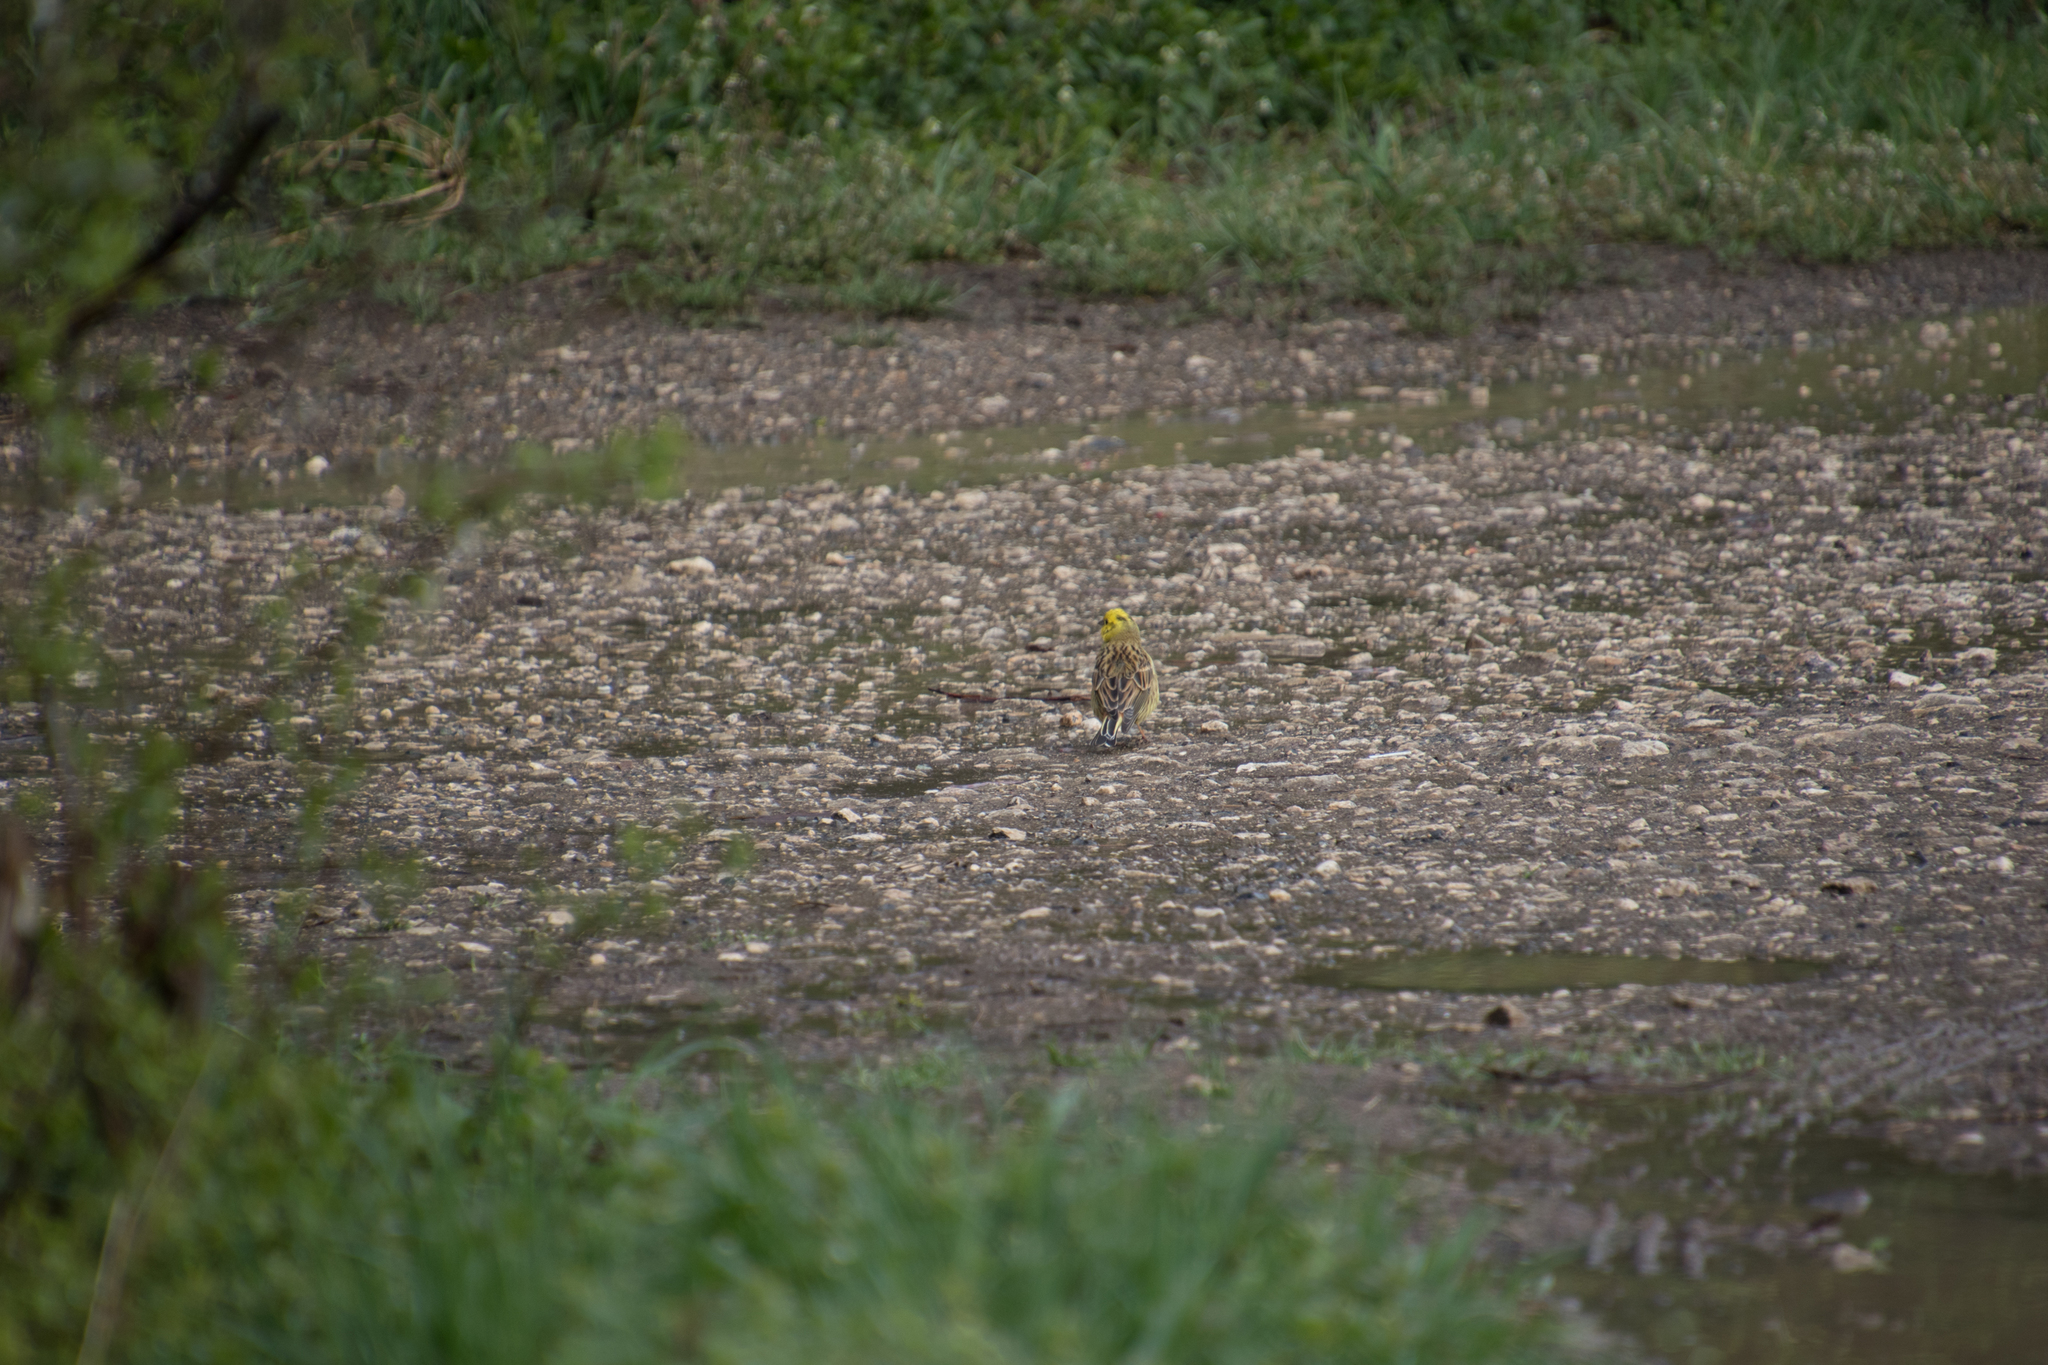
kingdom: Animalia
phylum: Chordata
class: Aves
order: Passeriformes
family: Emberizidae
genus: Emberiza
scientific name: Emberiza citrinella
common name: Yellowhammer
